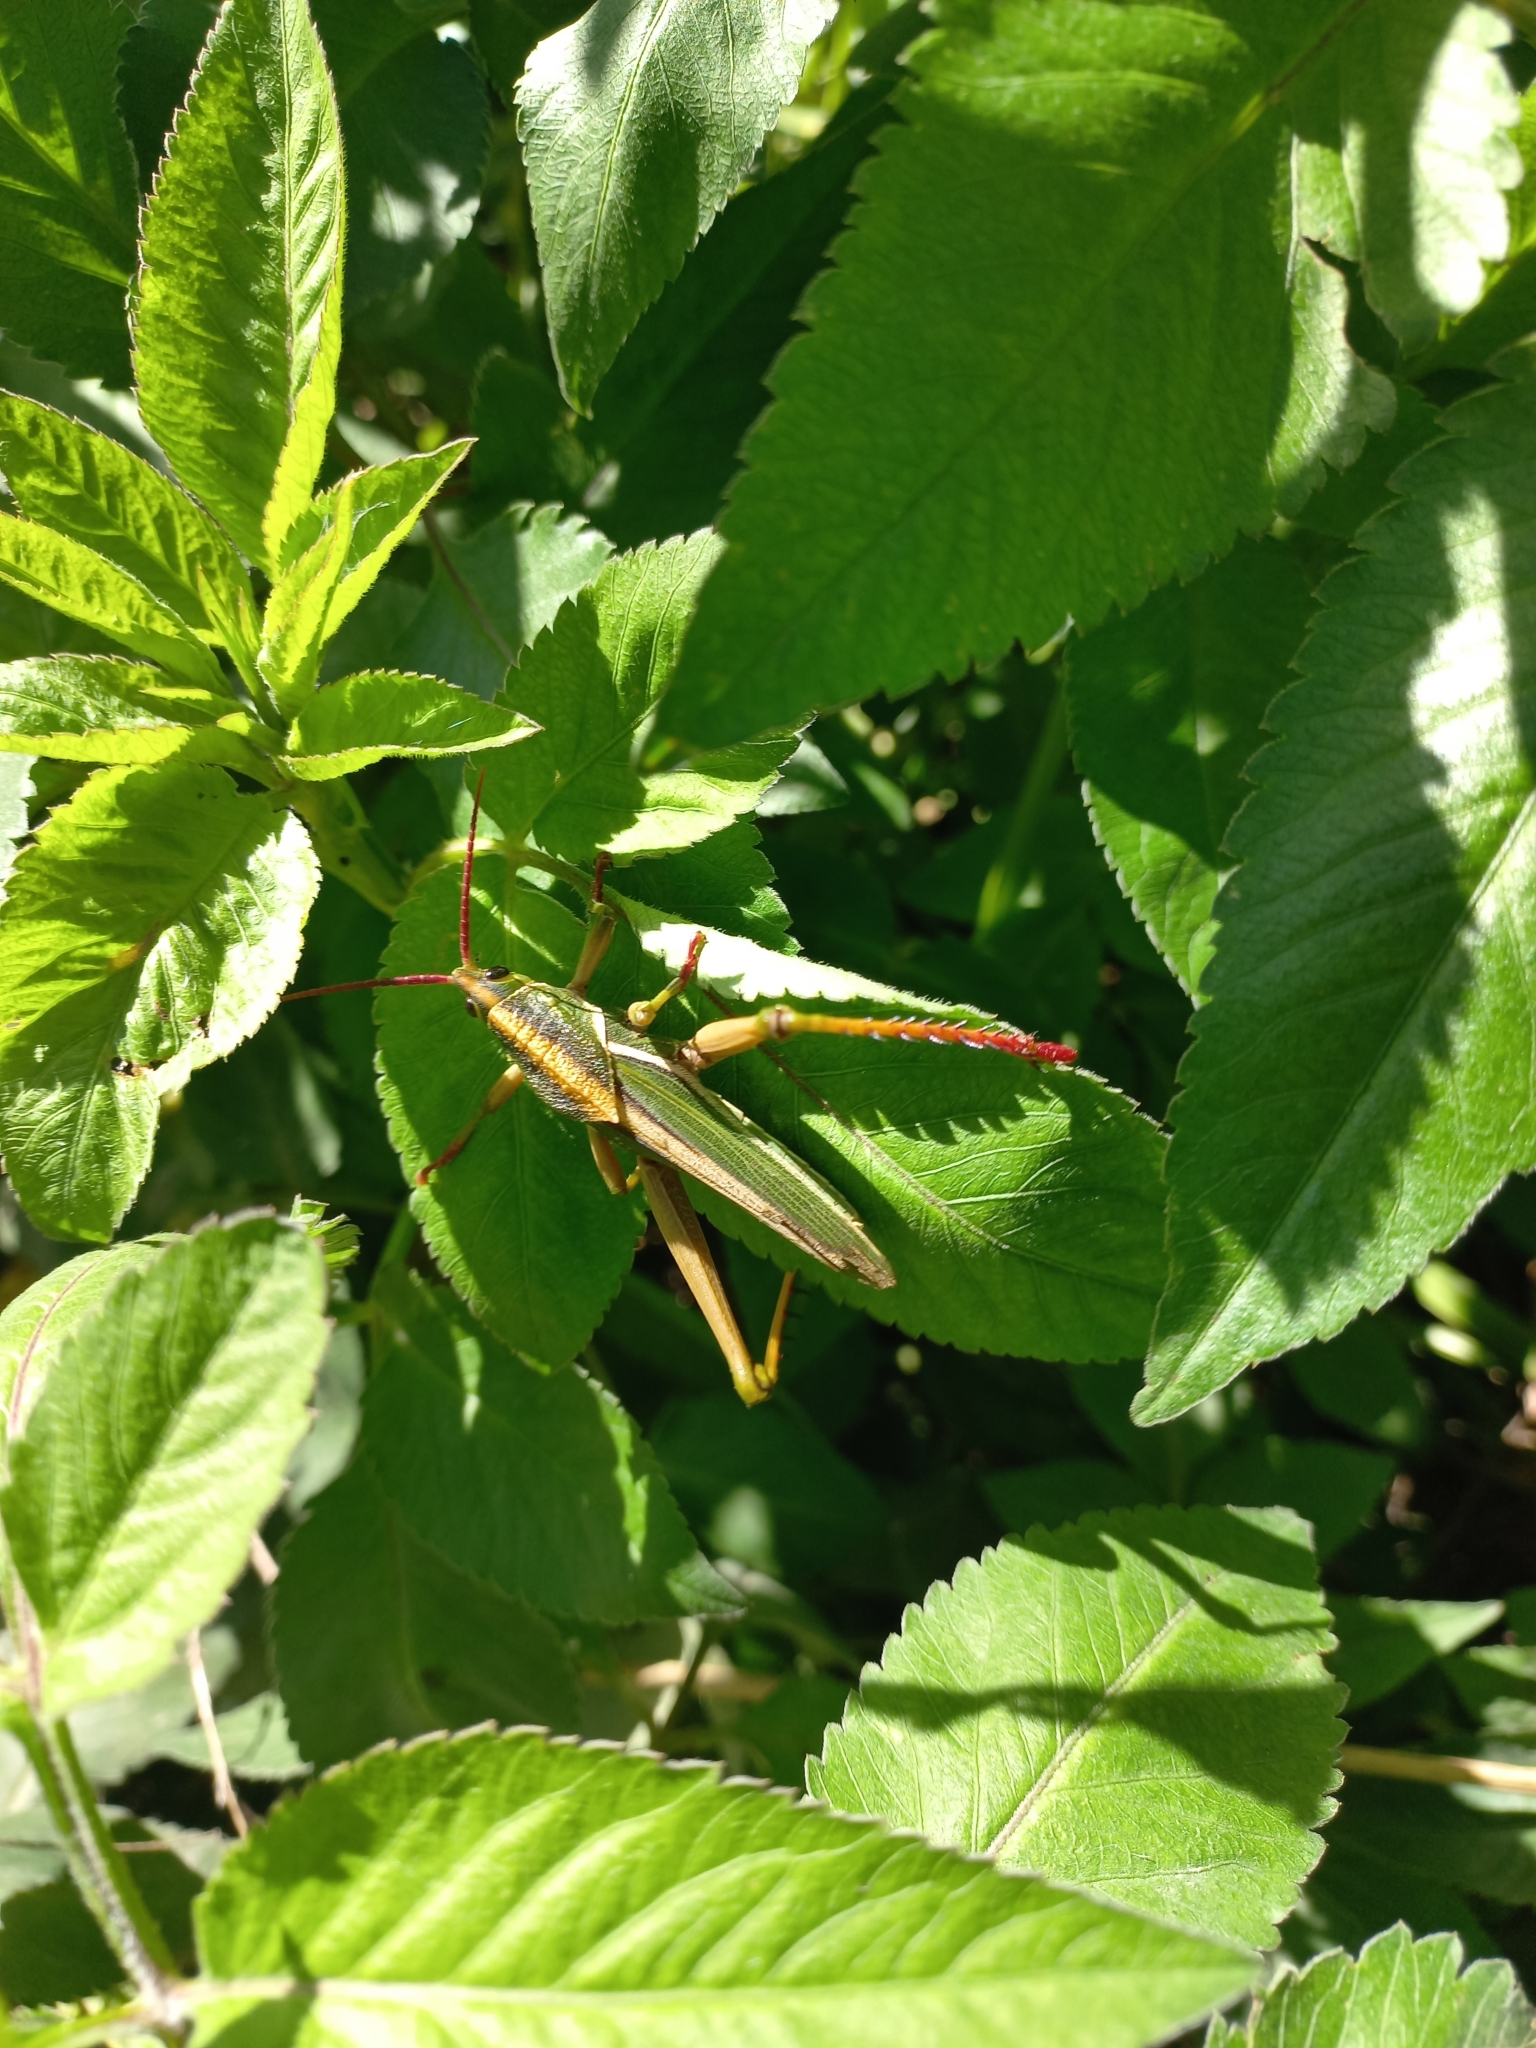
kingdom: Animalia
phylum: Arthropoda
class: Insecta
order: Orthoptera
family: Romaleidae
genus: Staleochlora
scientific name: Staleochlora viridicata
